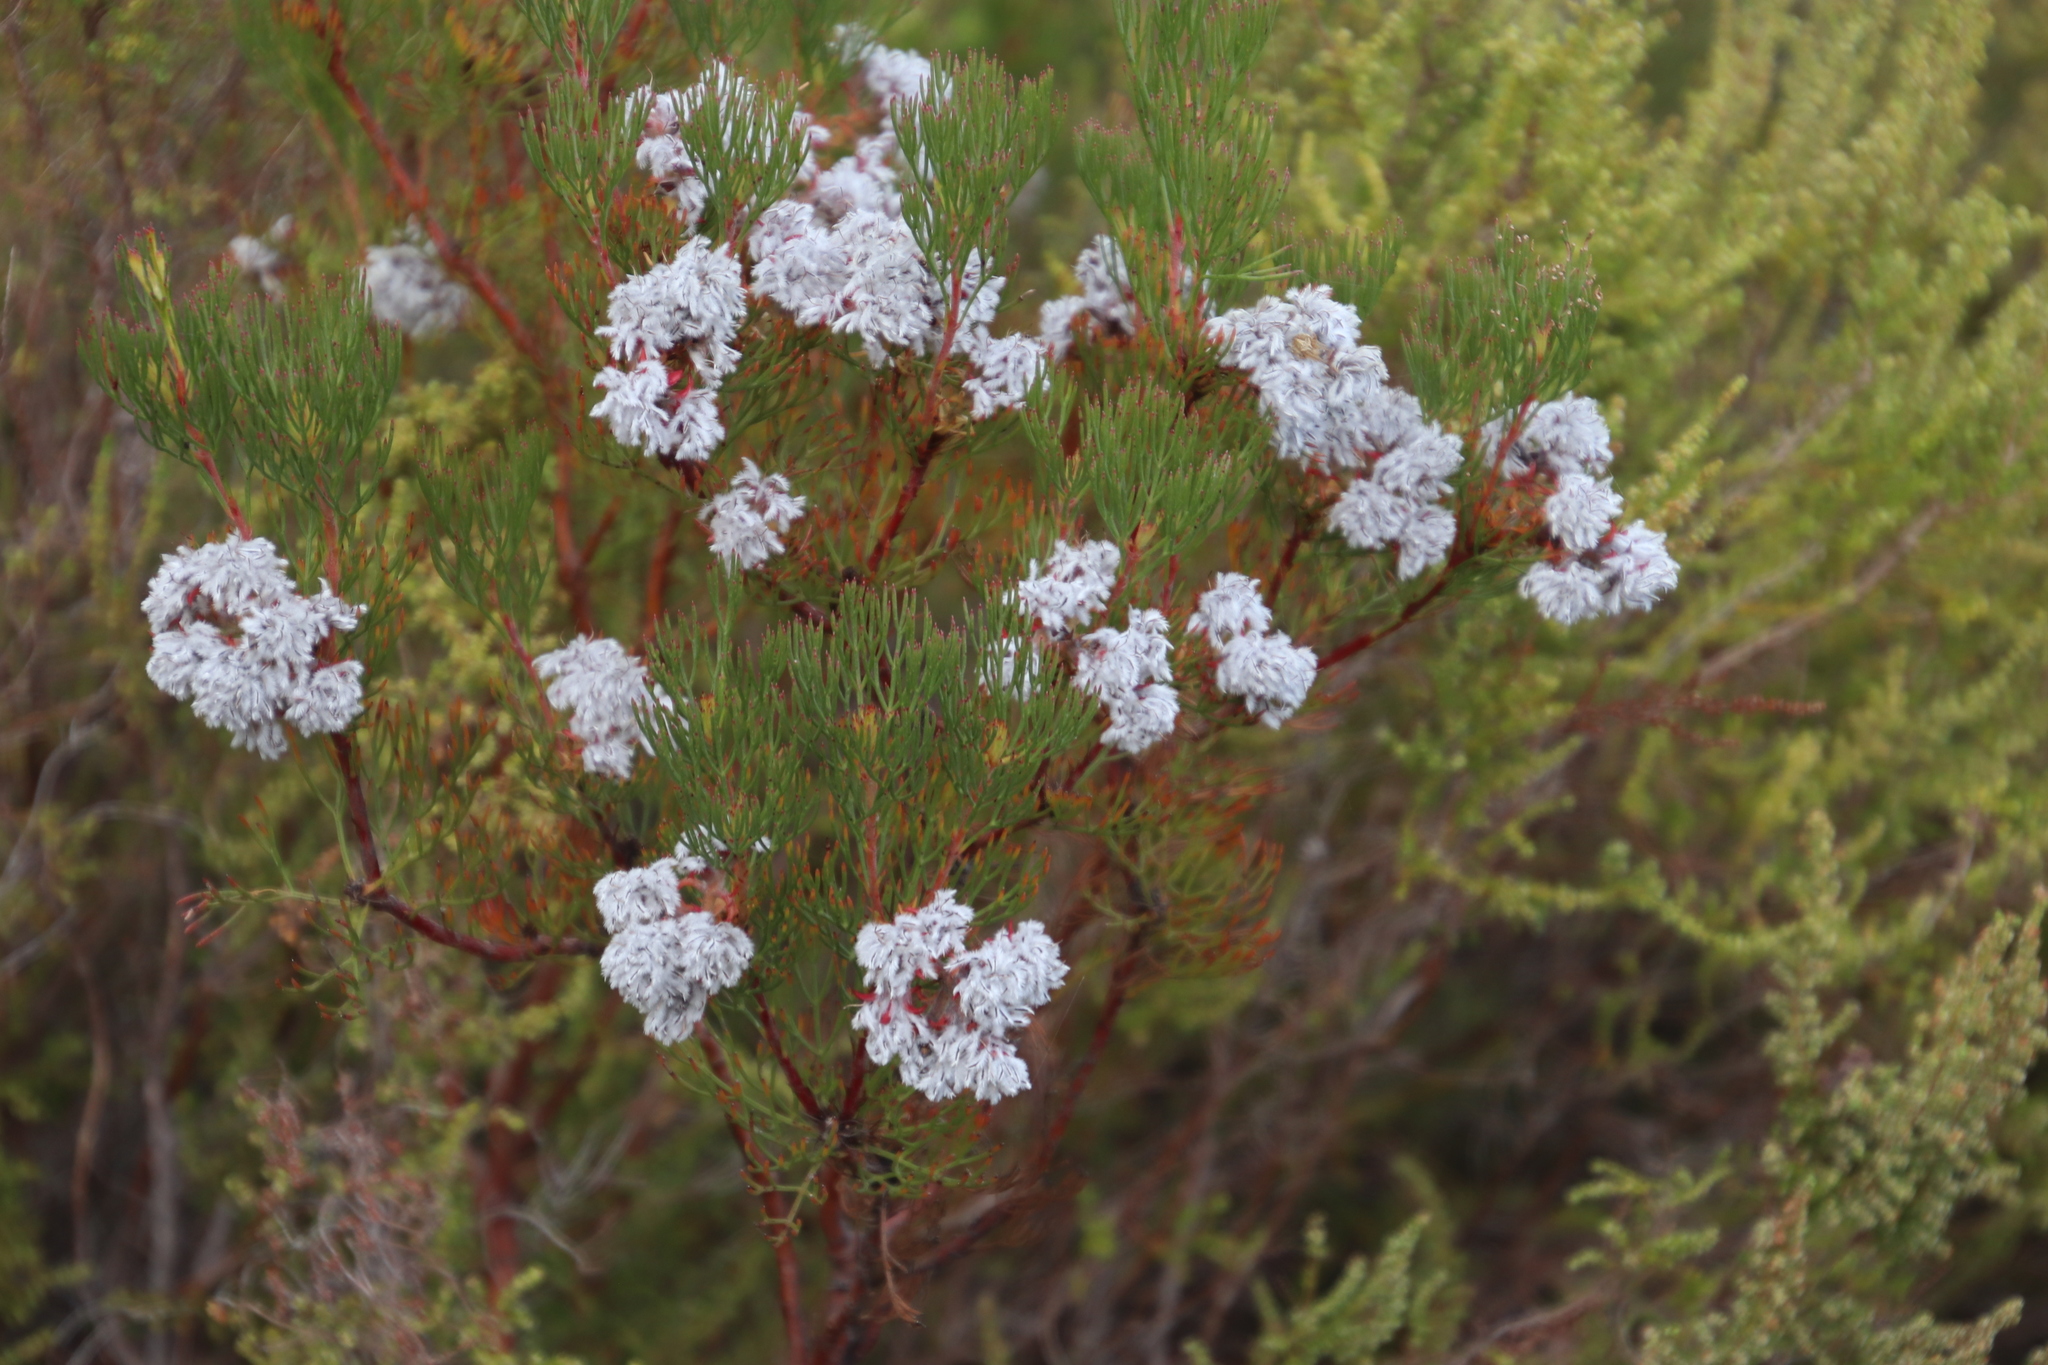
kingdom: Plantae
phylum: Tracheophyta
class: Magnoliopsida
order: Proteales
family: Proteaceae
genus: Serruria
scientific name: Serruria ascendens
